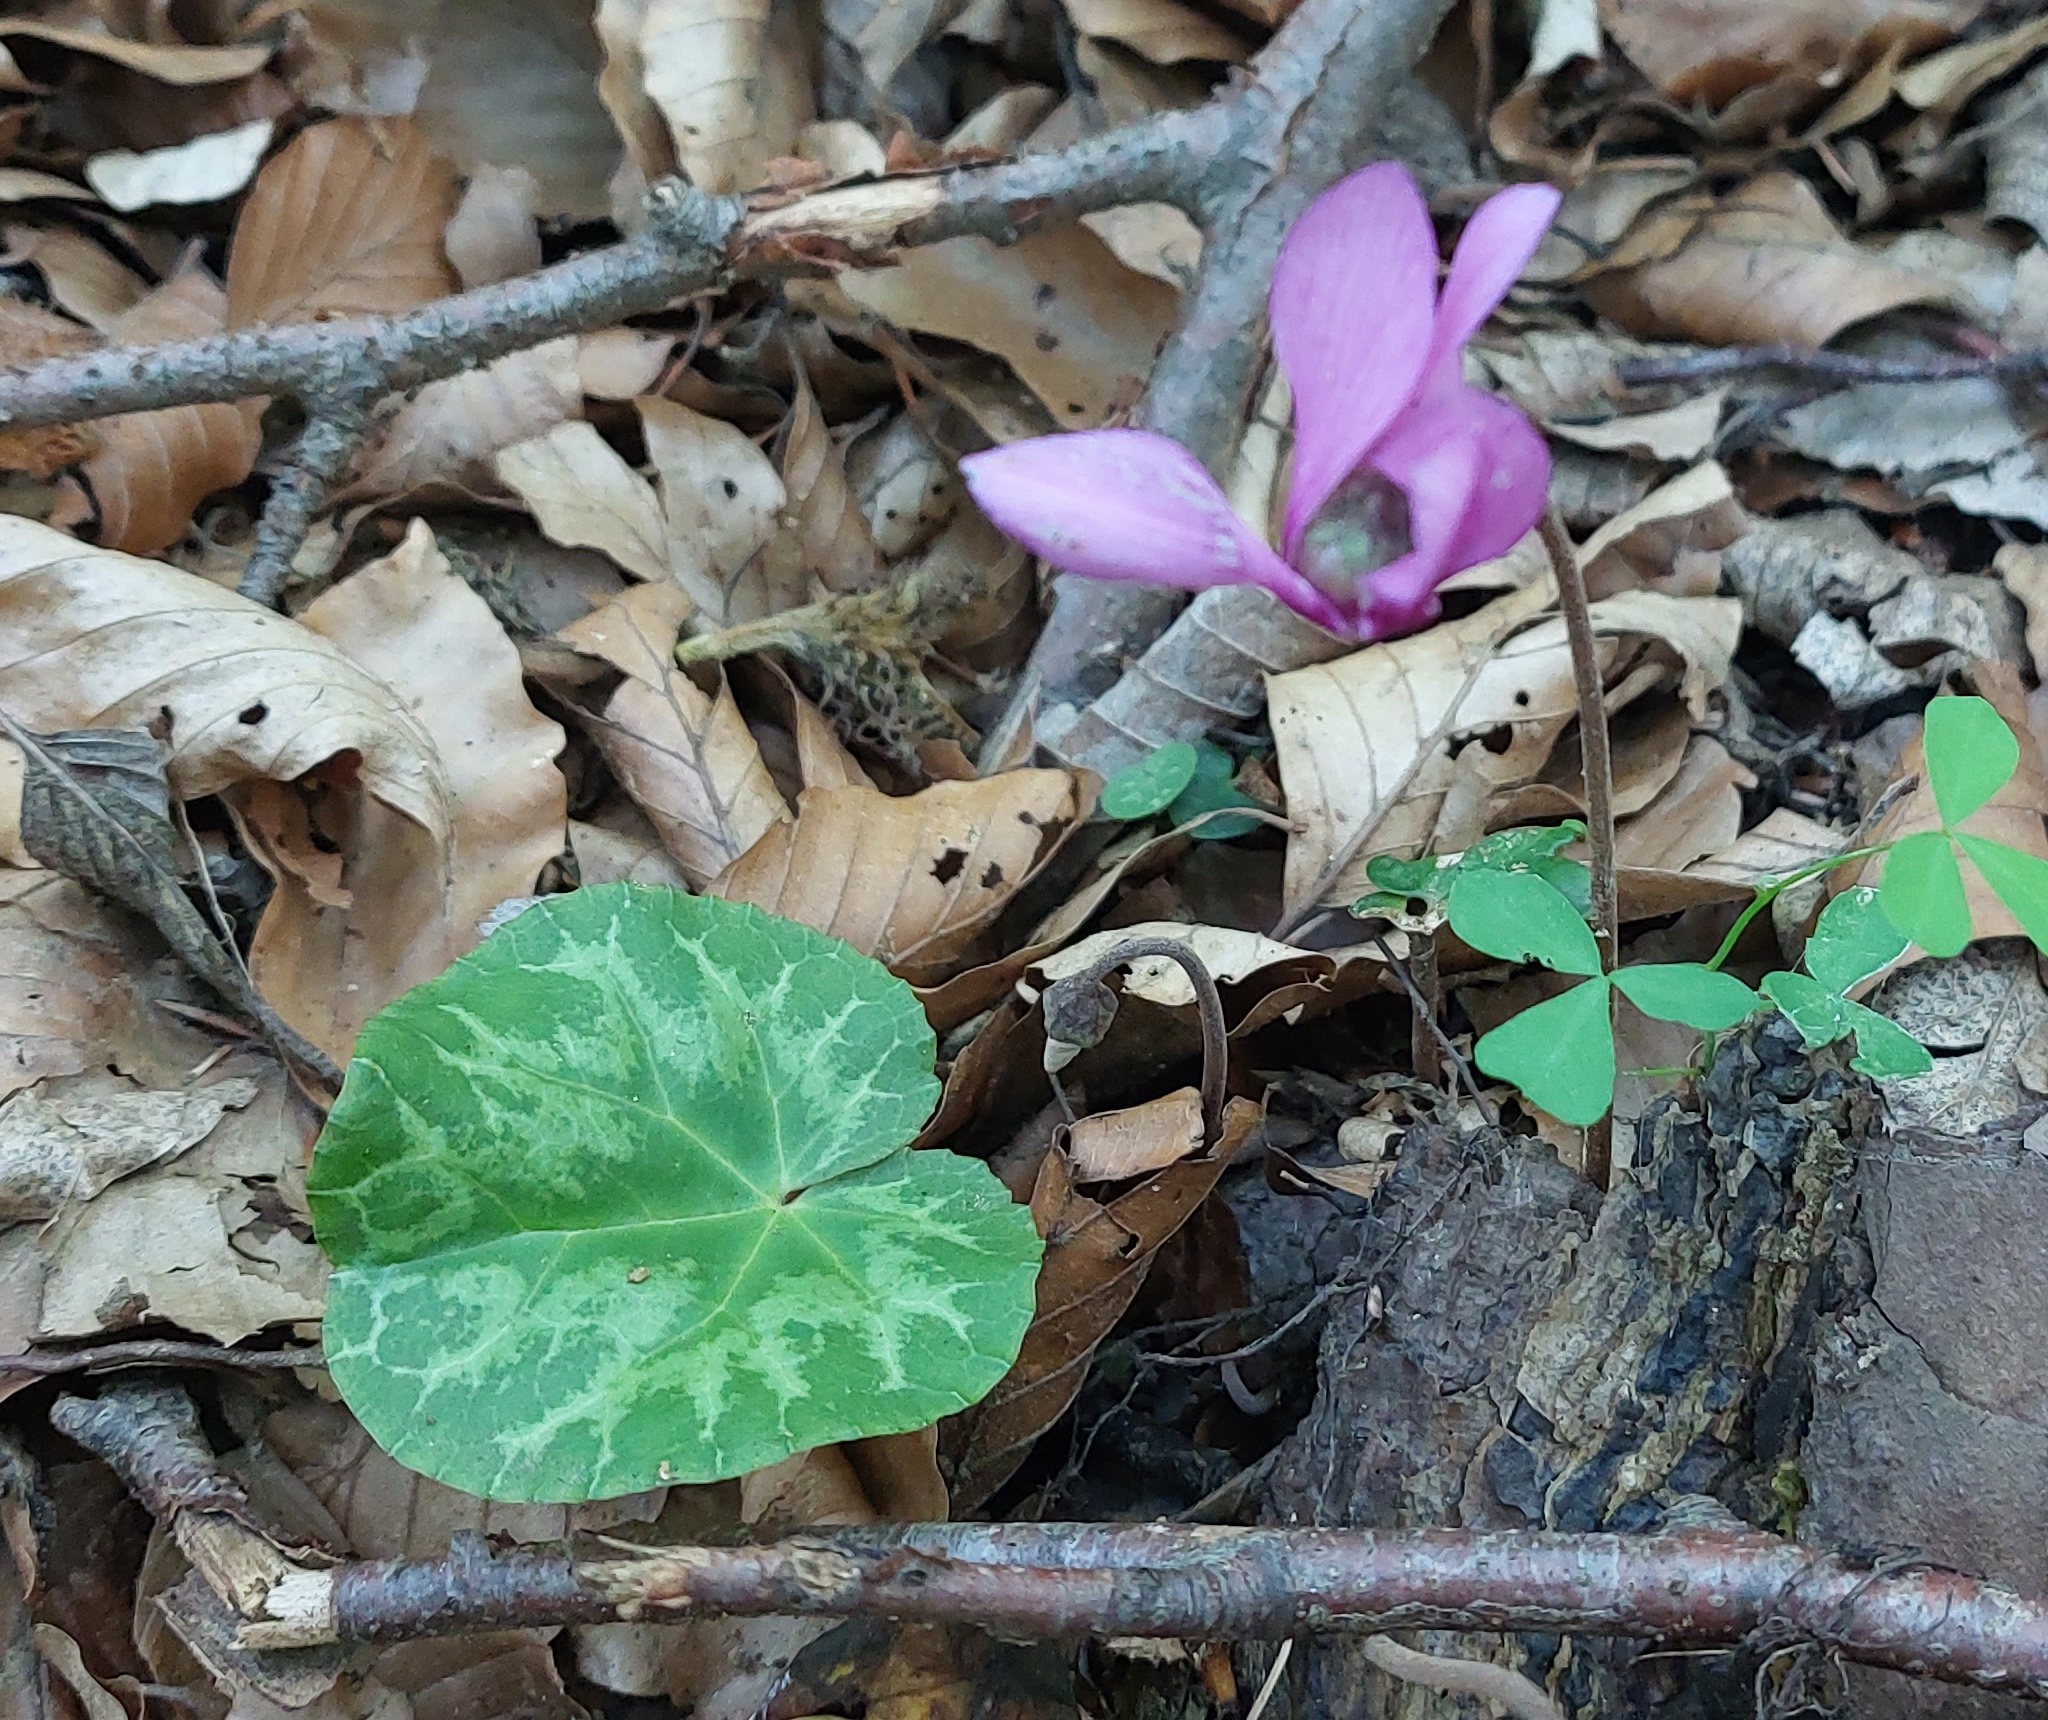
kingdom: Plantae
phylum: Tracheophyta
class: Magnoliopsida
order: Ericales
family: Primulaceae
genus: Cyclamen
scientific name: Cyclamen purpurascens
